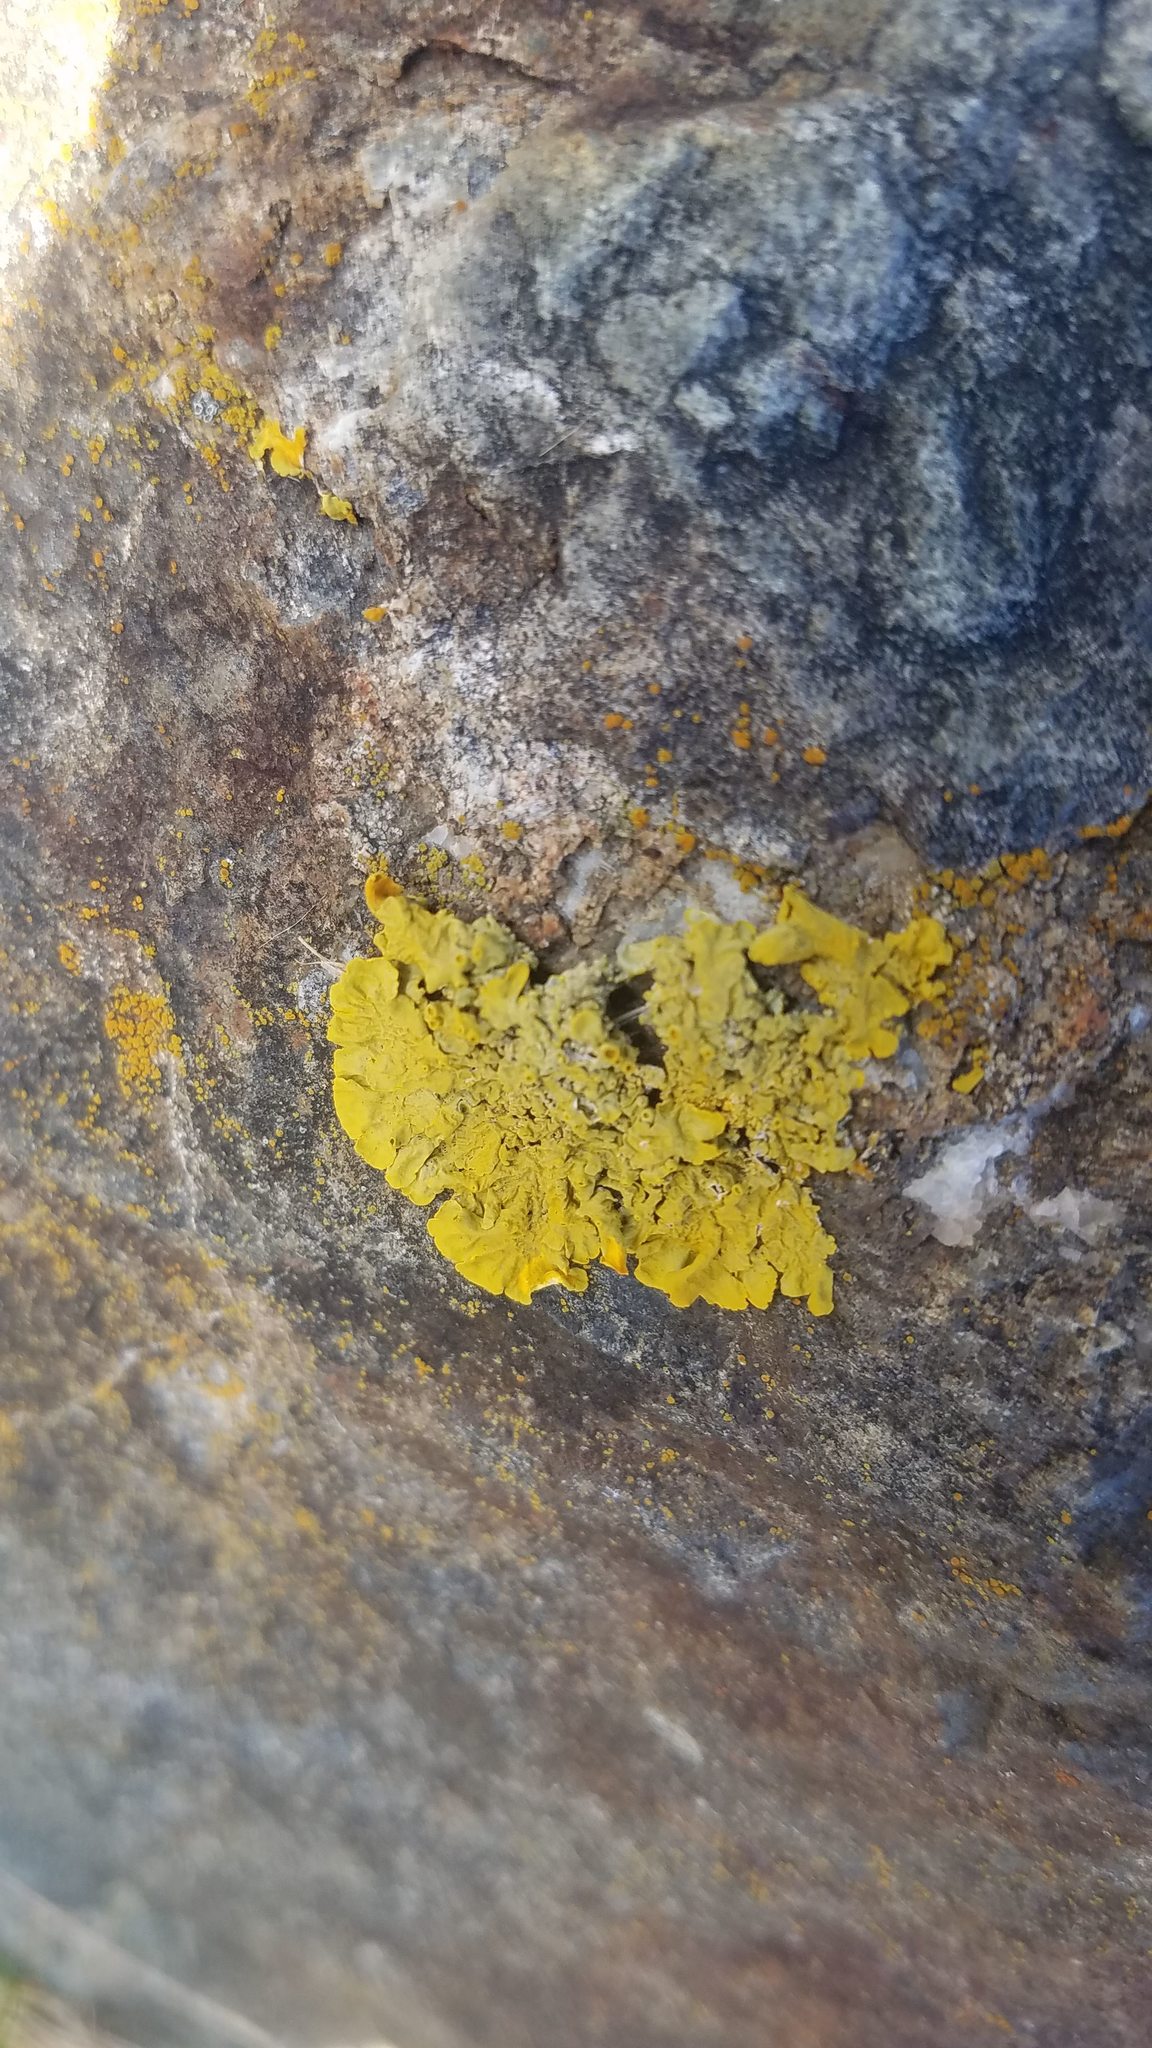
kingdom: Fungi
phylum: Ascomycota
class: Lecanoromycetes
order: Teloschistales
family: Teloschistaceae
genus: Xanthoria
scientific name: Xanthoria parietina
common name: Common orange lichen
